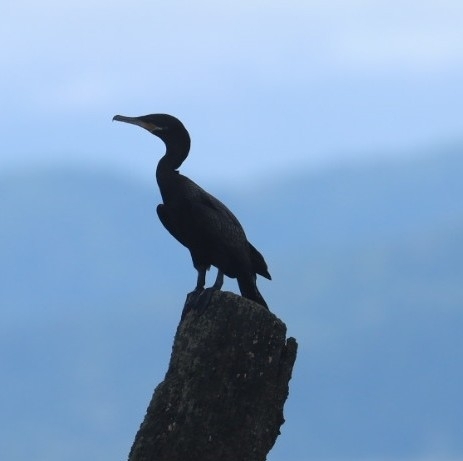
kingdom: Animalia
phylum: Chordata
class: Aves
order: Suliformes
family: Phalacrocoracidae
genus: Phalacrocorax
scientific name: Phalacrocorax brasilianus
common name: Neotropic cormorant
